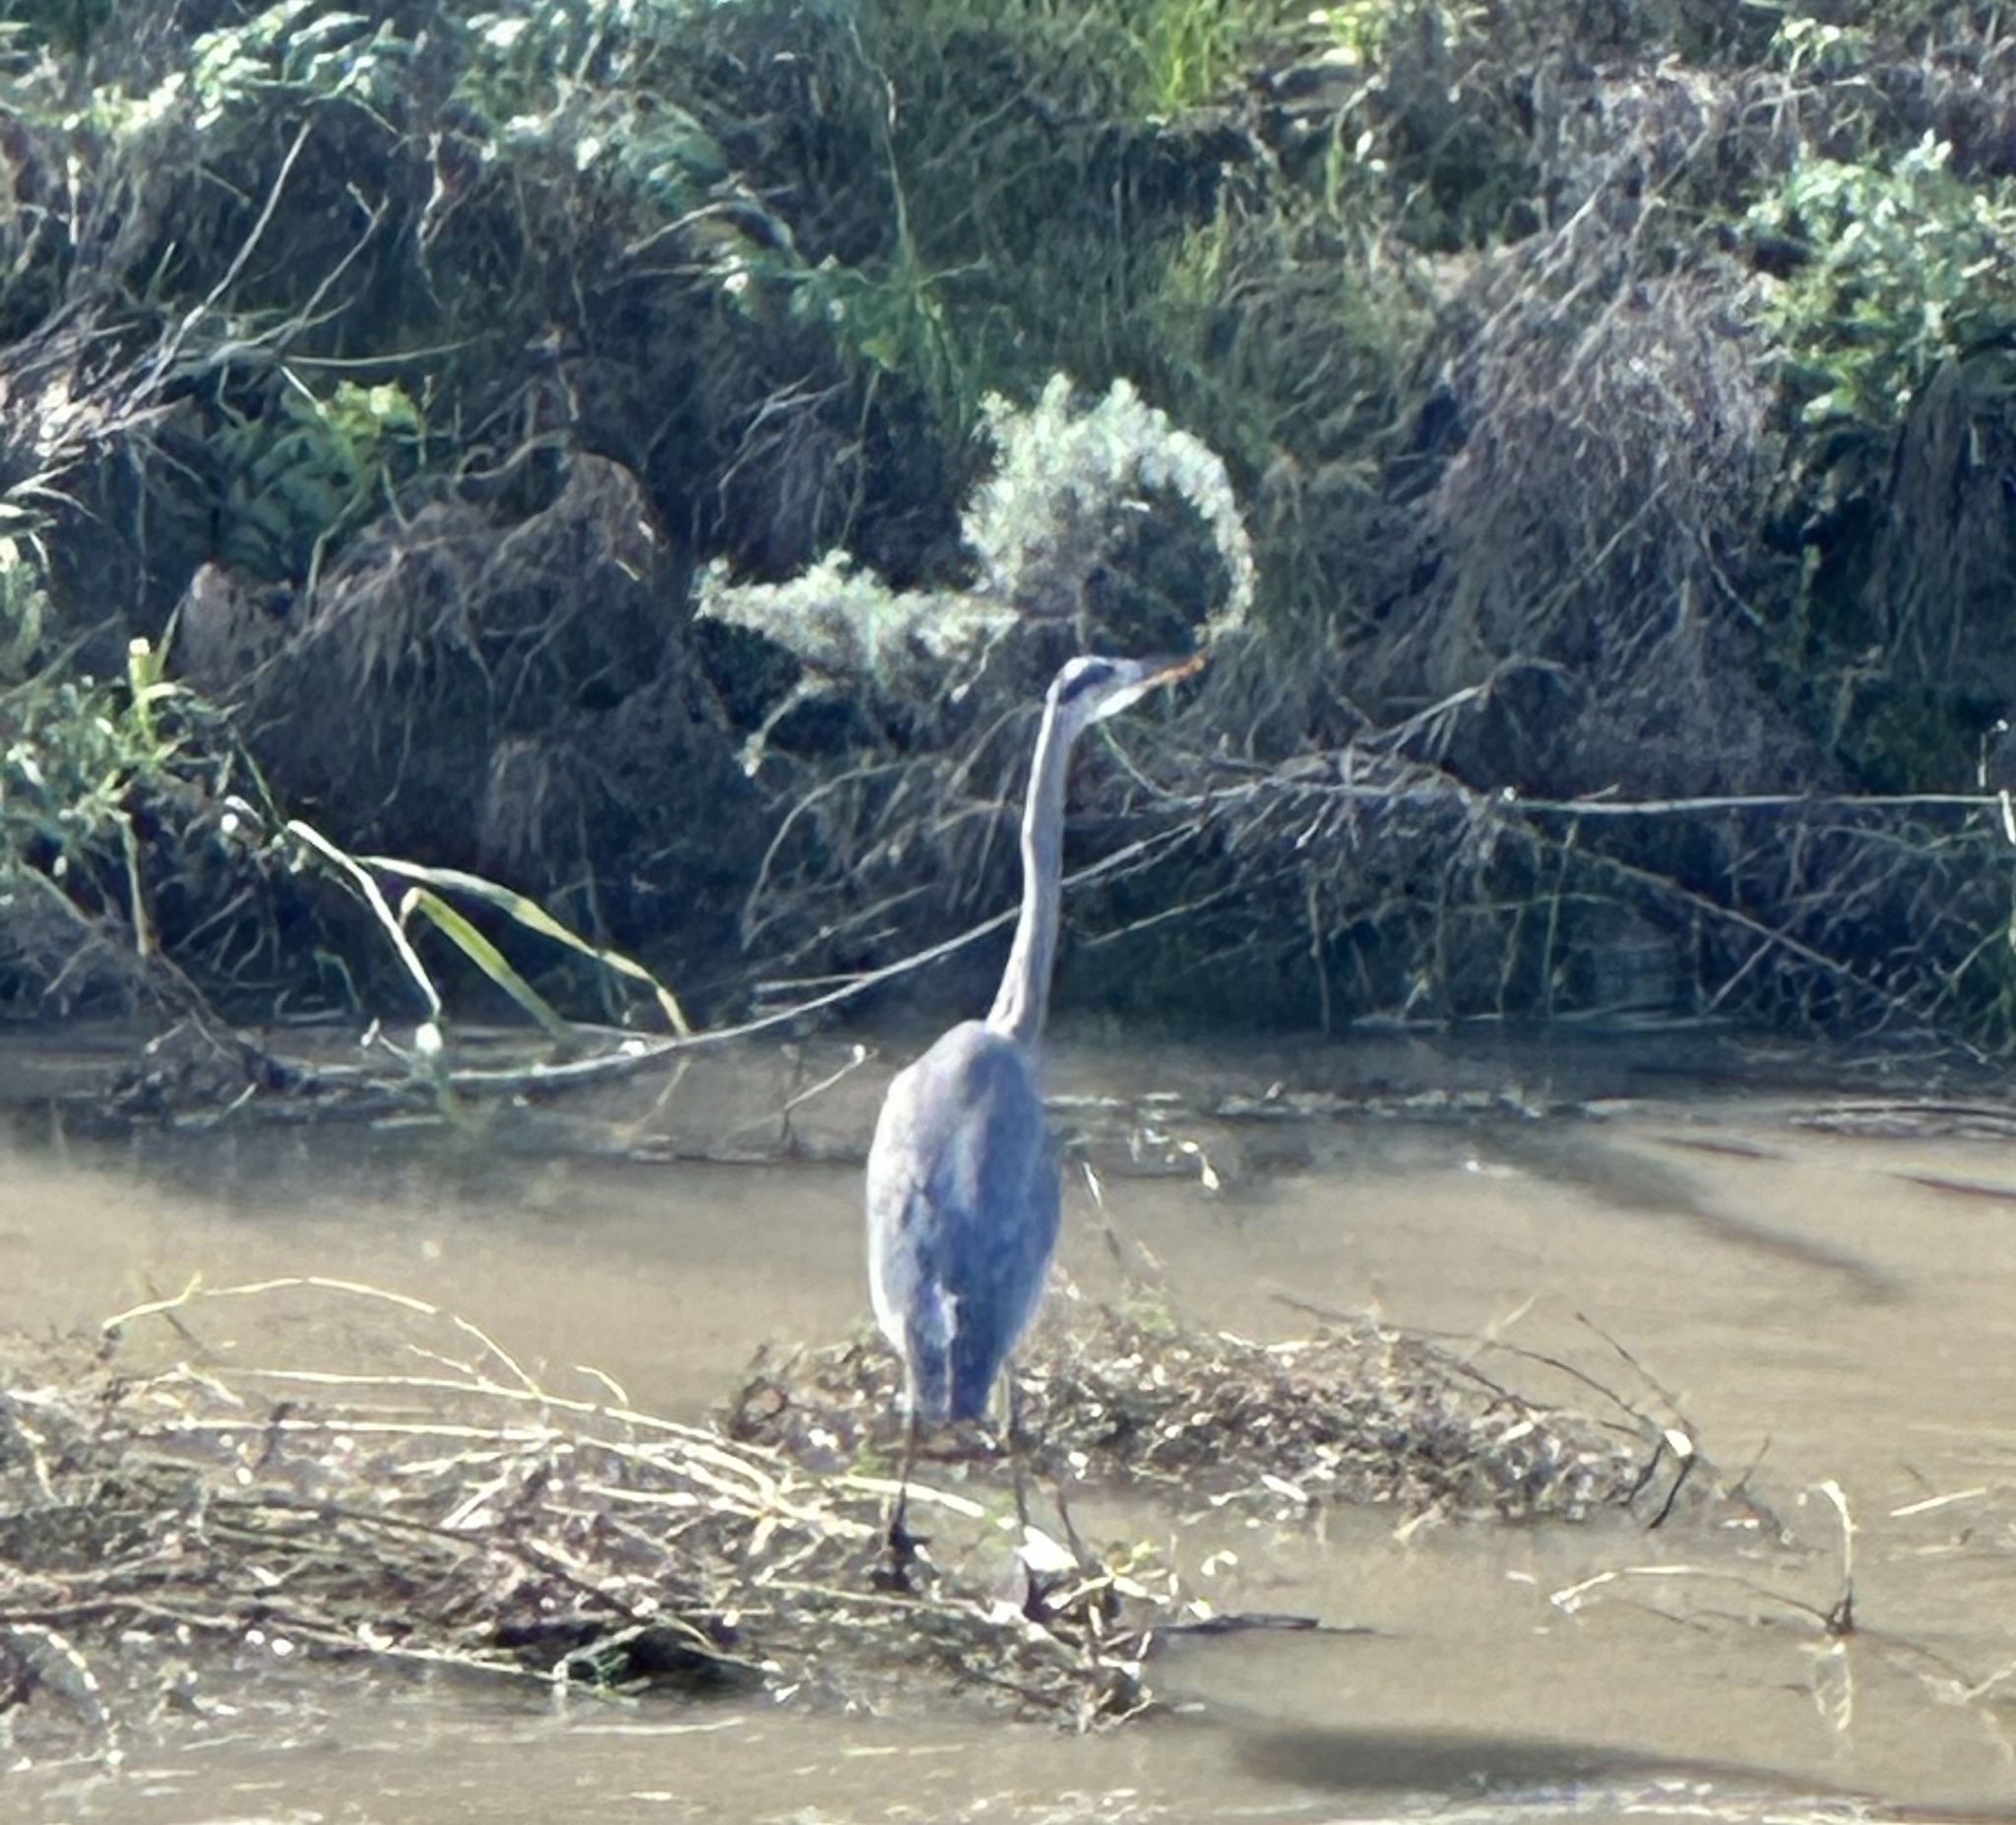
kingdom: Animalia
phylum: Chordata
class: Aves
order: Pelecaniformes
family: Ardeidae
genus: Ardea
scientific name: Ardea herodias
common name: Great blue heron
